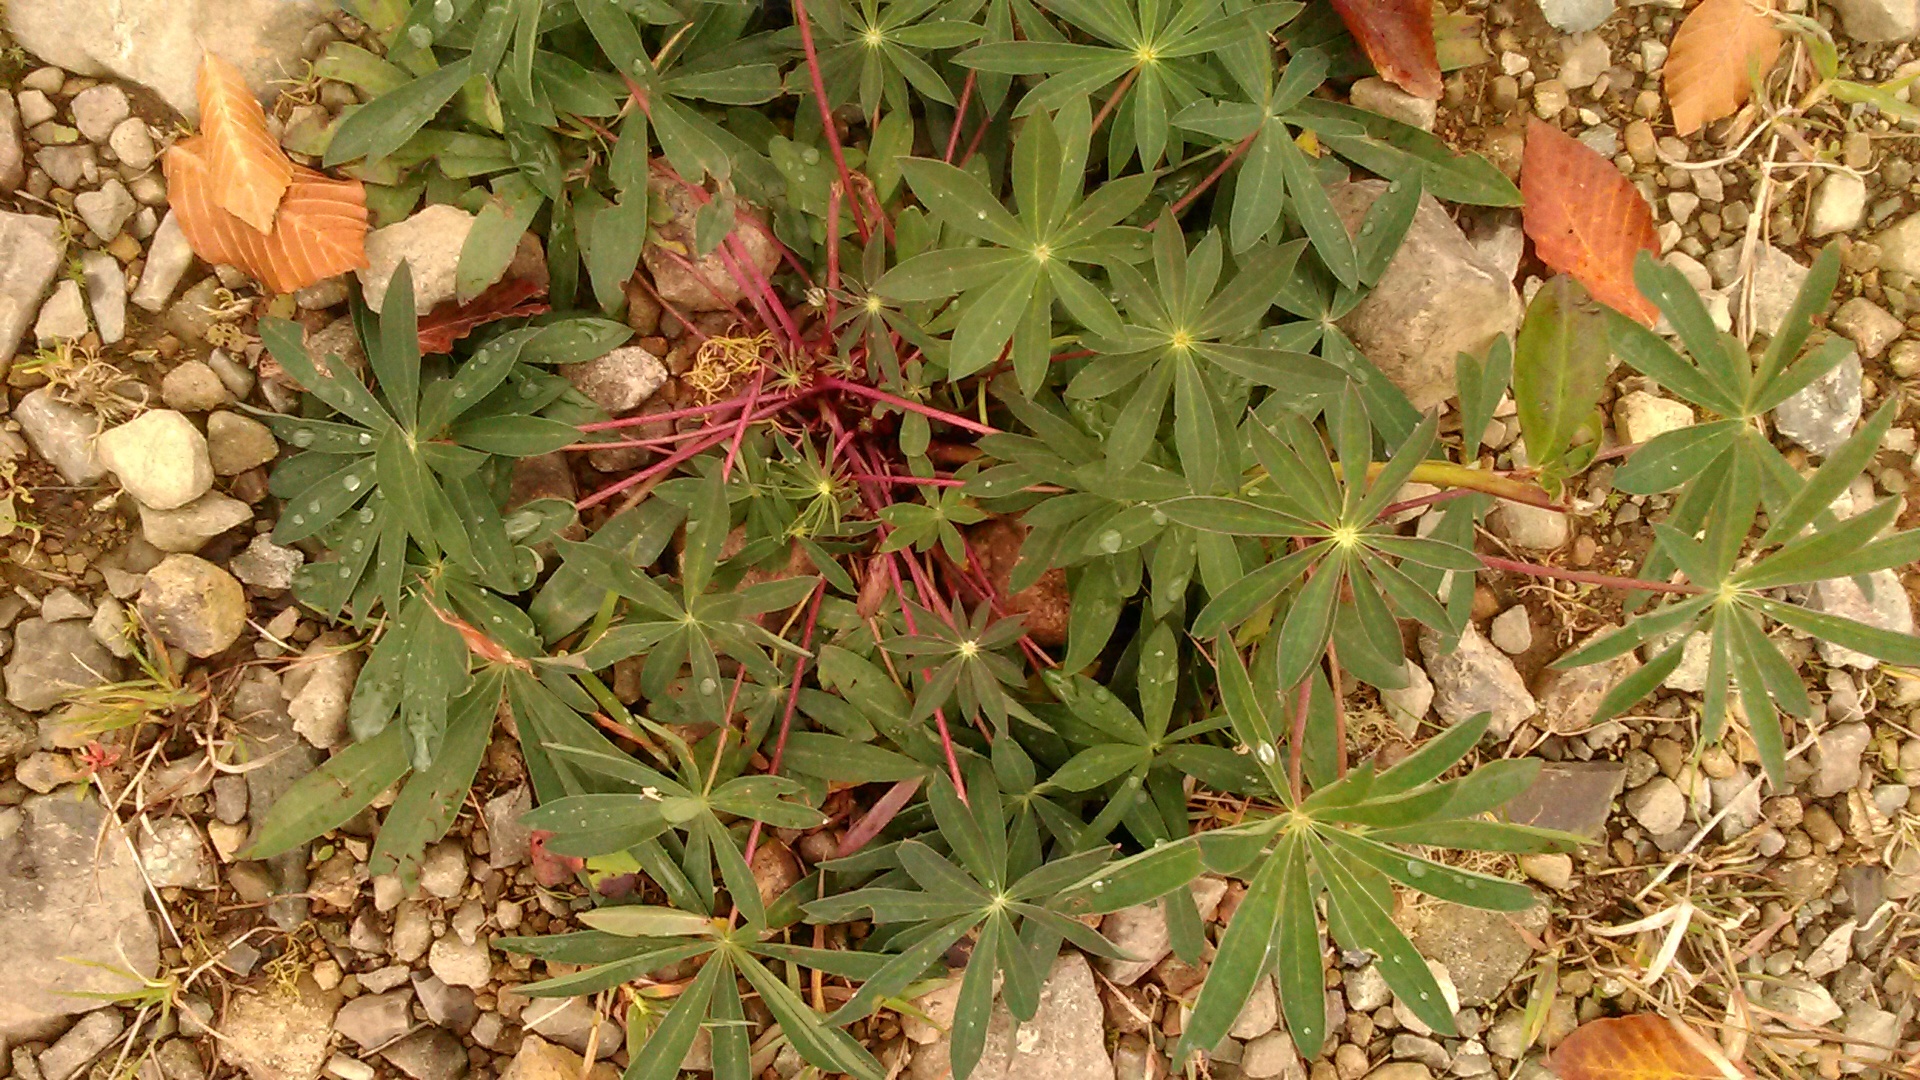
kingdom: Plantae
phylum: Tracheophyta
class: Magnoliopsida
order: Fabales
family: Fabaceae
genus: Lupinus
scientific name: Lupinus polyphyllus
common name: Garden lupin
